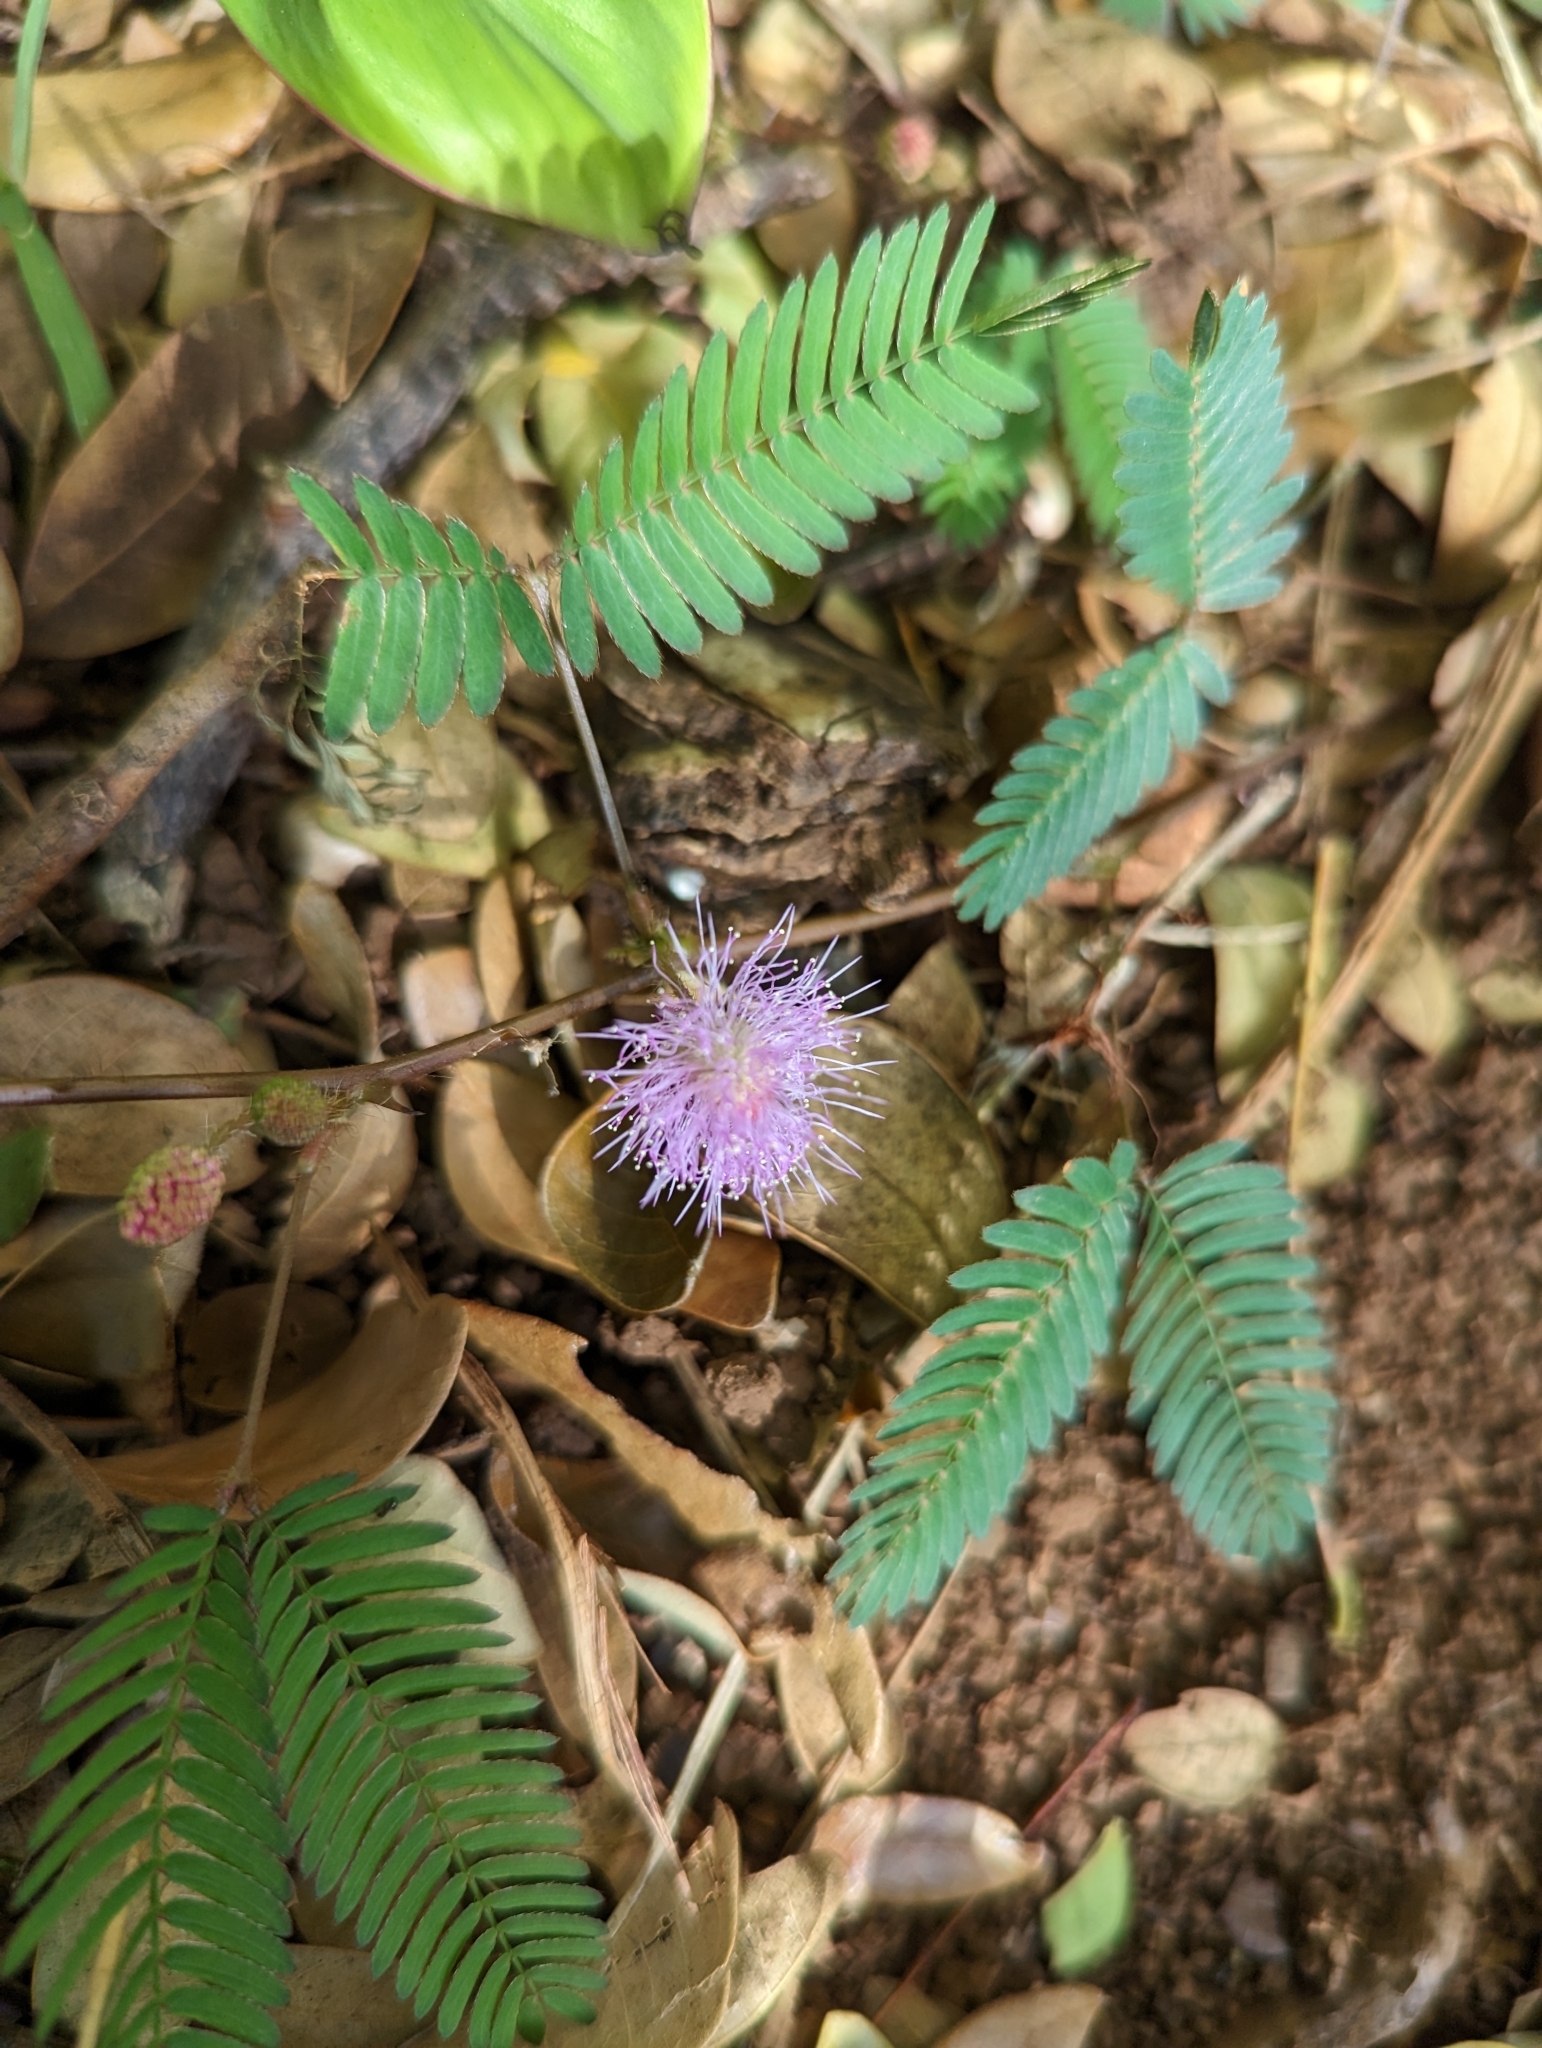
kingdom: Plantae
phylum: Tracheophyta
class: Magnoliopsida
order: Fabales
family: Fabaceae
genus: Mimosa
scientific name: Mimosa pudica
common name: Sensitive plant
